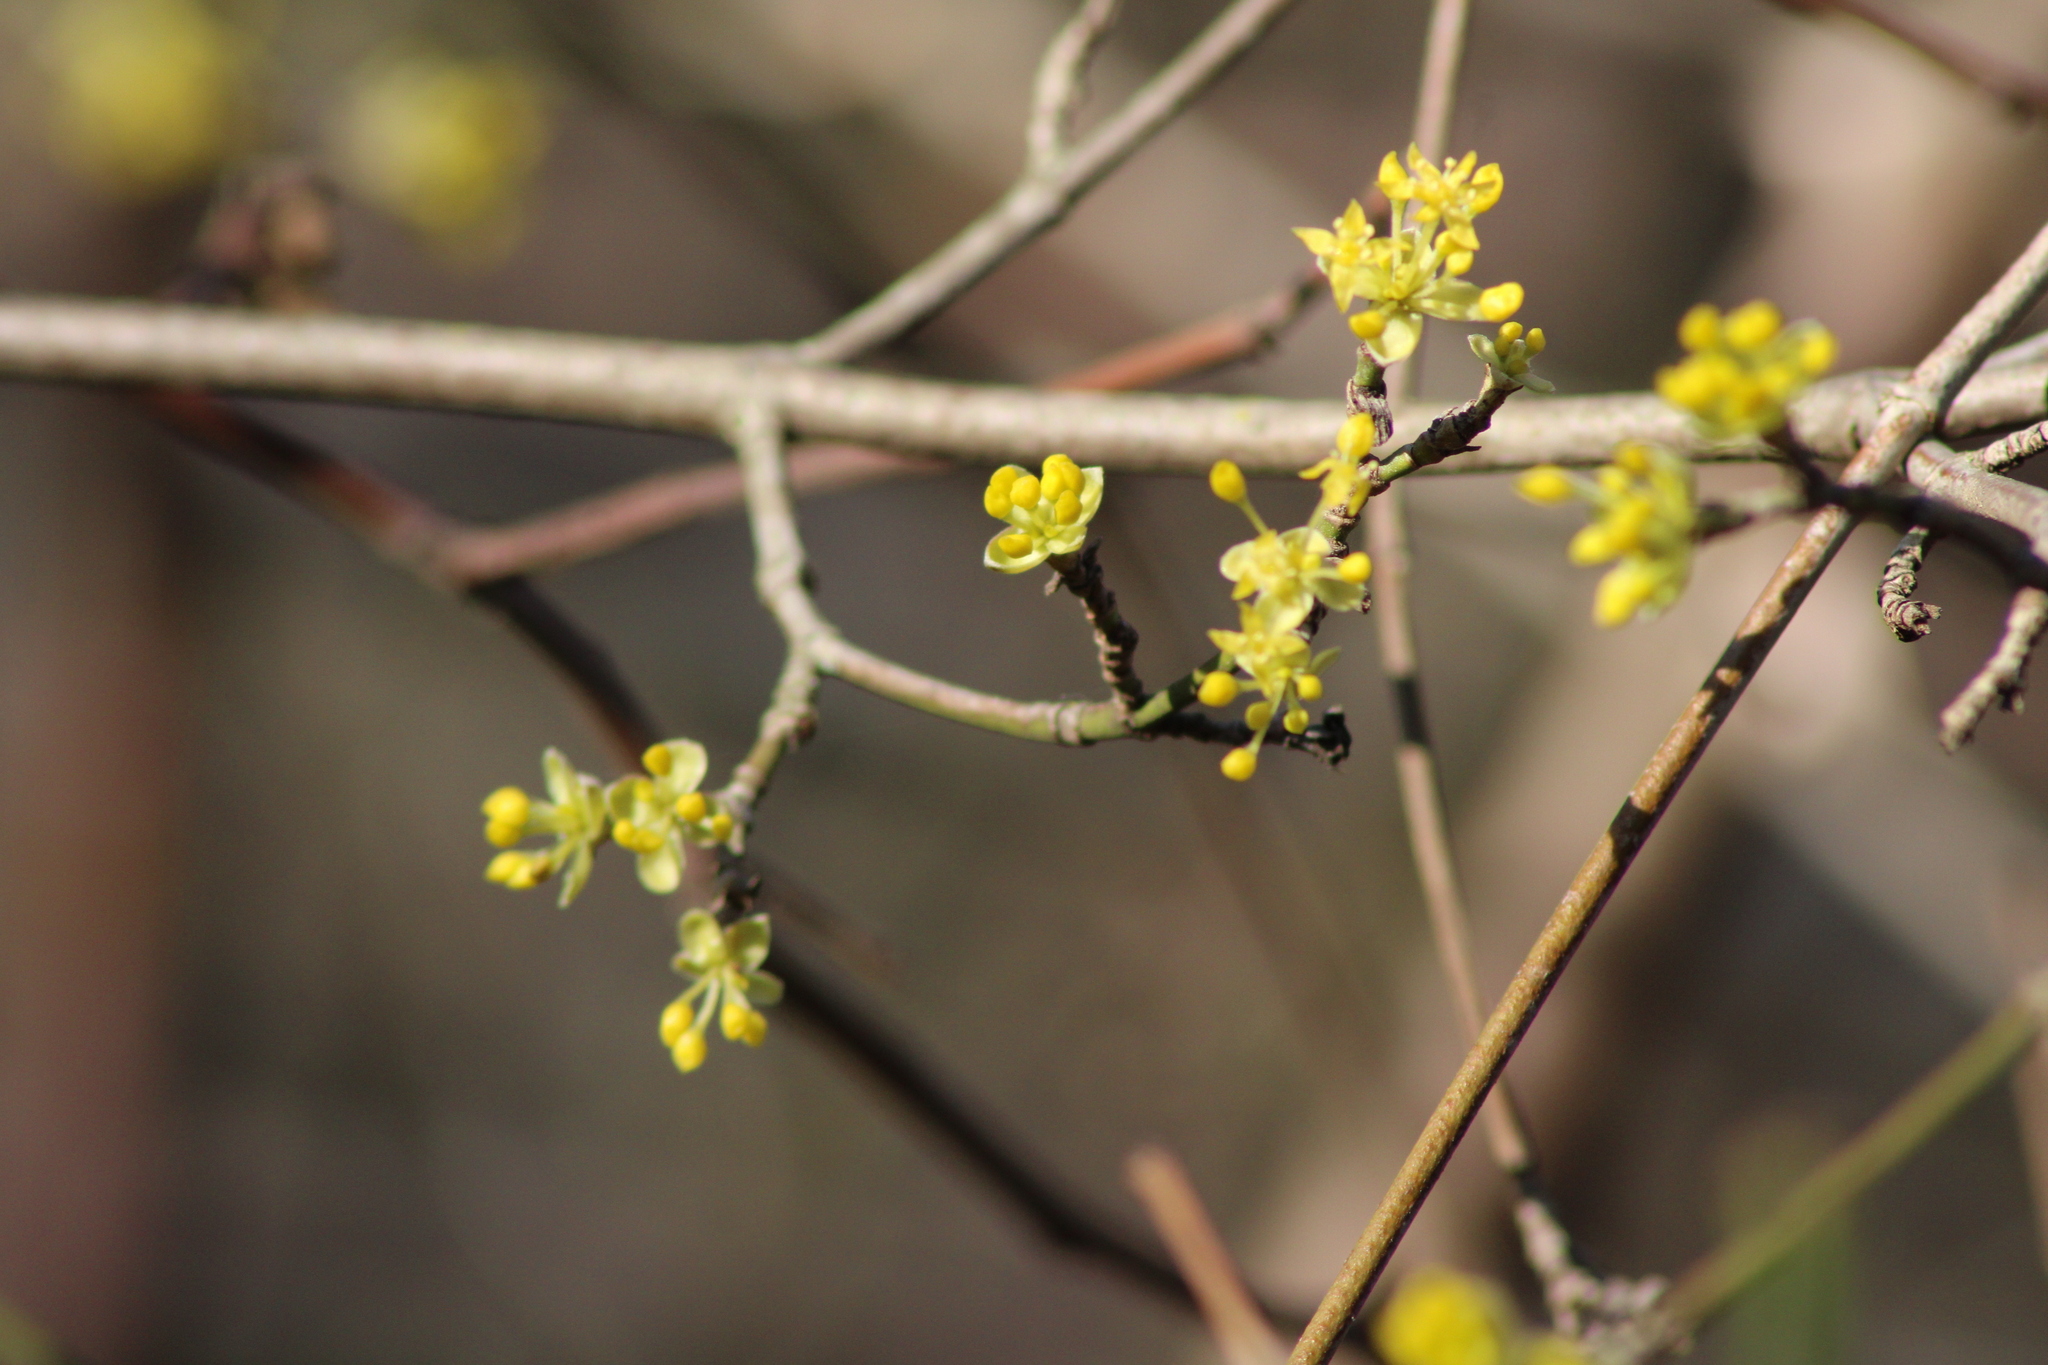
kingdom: Plantae
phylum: Tracheophyta
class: Magnoliopsida
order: Cornales
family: Cornaceae
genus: Cornus
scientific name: Cornus mas
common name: Cornelian-cherry
